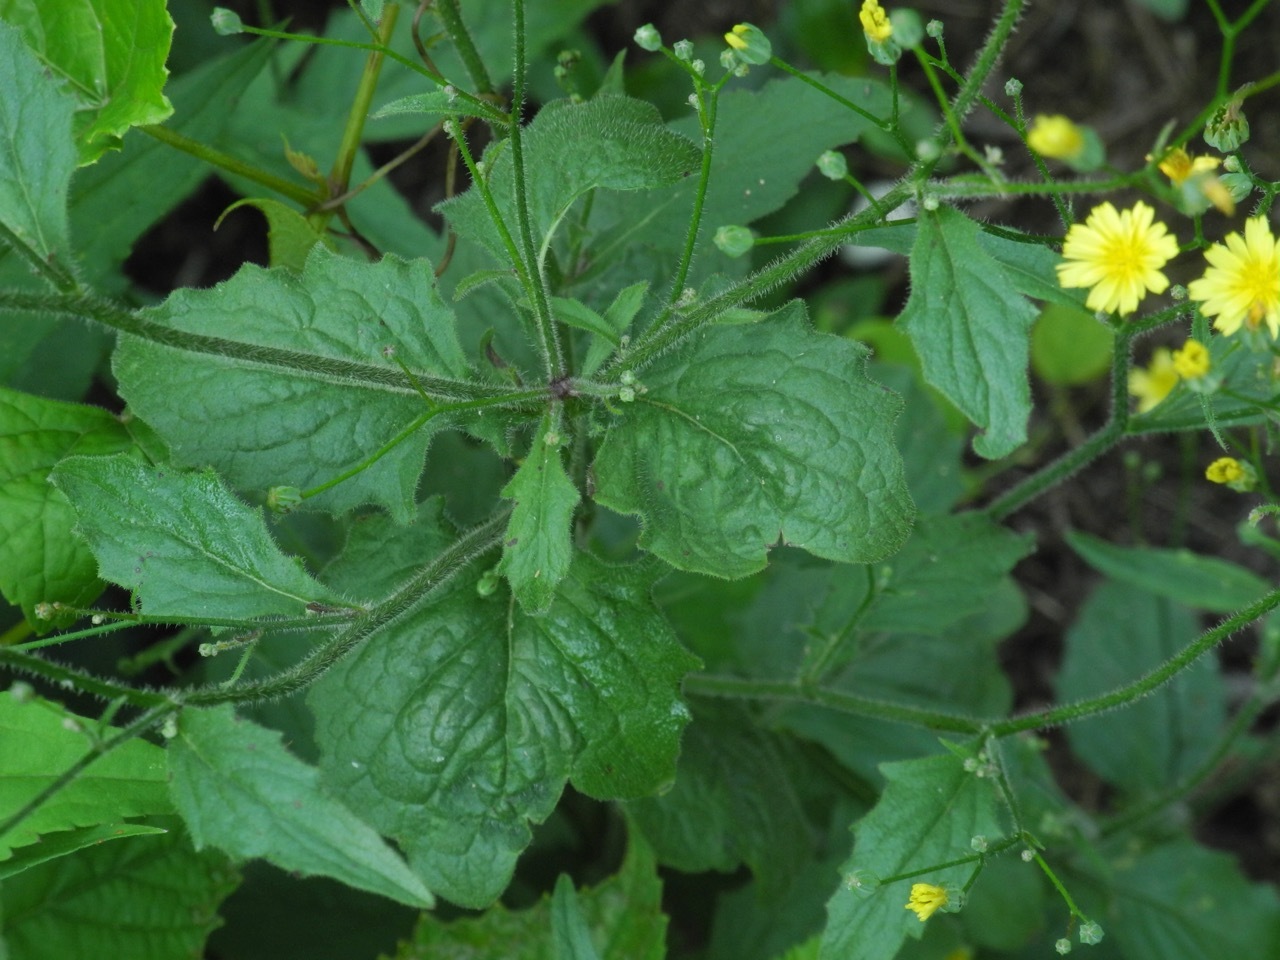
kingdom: Plantae
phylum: Tracheophyta
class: Magnoliopsida
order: Asterales
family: Asteraceae
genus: Lapsana
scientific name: Lapsana communis
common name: Nipplewort
